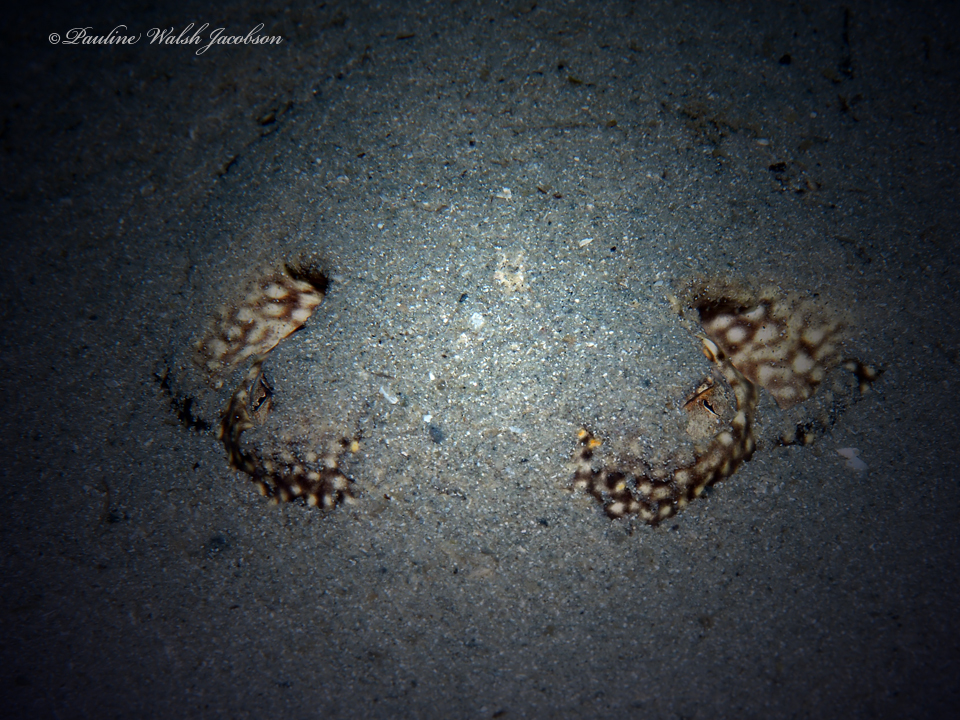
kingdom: Animalia
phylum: Chordata
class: Elasmobranchii
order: Myliobatiformes
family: Urotrygonidae
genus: Urobatis
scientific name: Urobatis jamaicensis
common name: Yellow stingray
